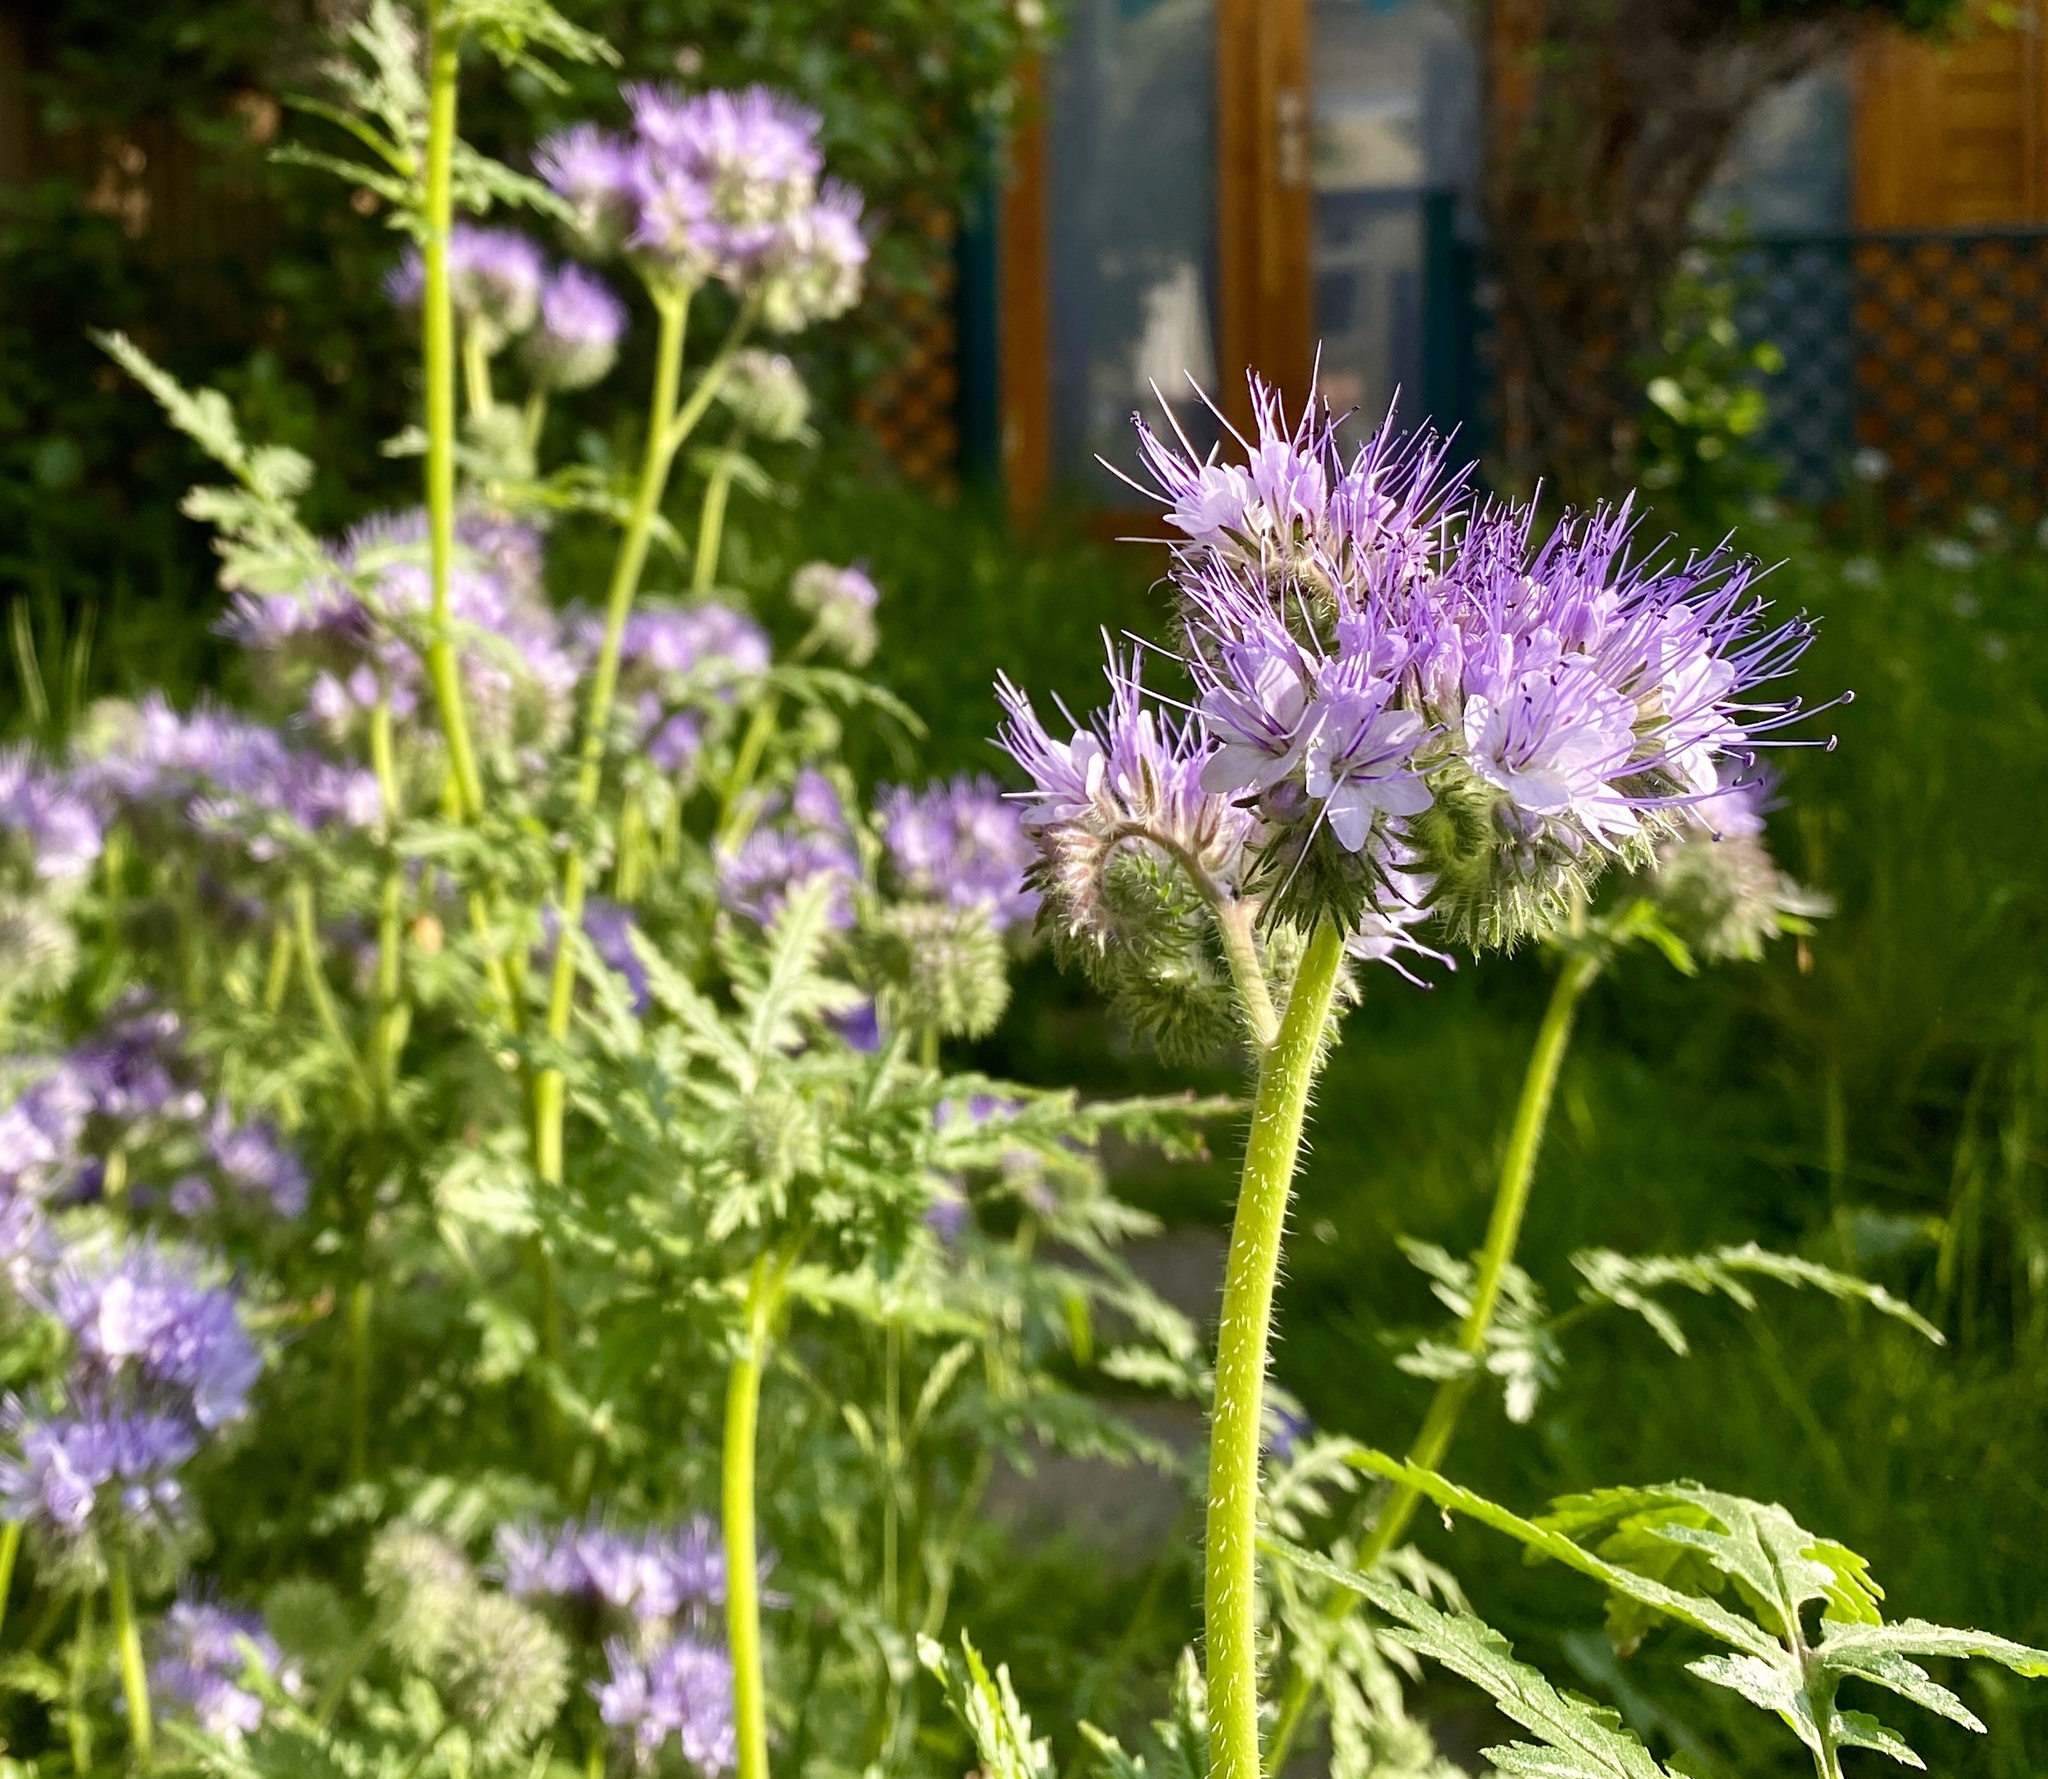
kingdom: Plantae
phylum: Tracheophyta
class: Magnoliopsida
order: Boraginales
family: Hydrophyllaceae
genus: Phacelia
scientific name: Phacelia tanacetifolia
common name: Phacelia
